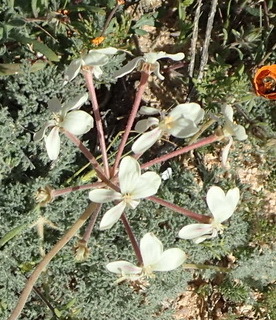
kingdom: Plantae
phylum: Tracheophyta
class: Magnoliopsida
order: Geraniales
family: Geraniaceae
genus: Pelargonium
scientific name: Pelargonium triste
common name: Night-scent pelargonium
